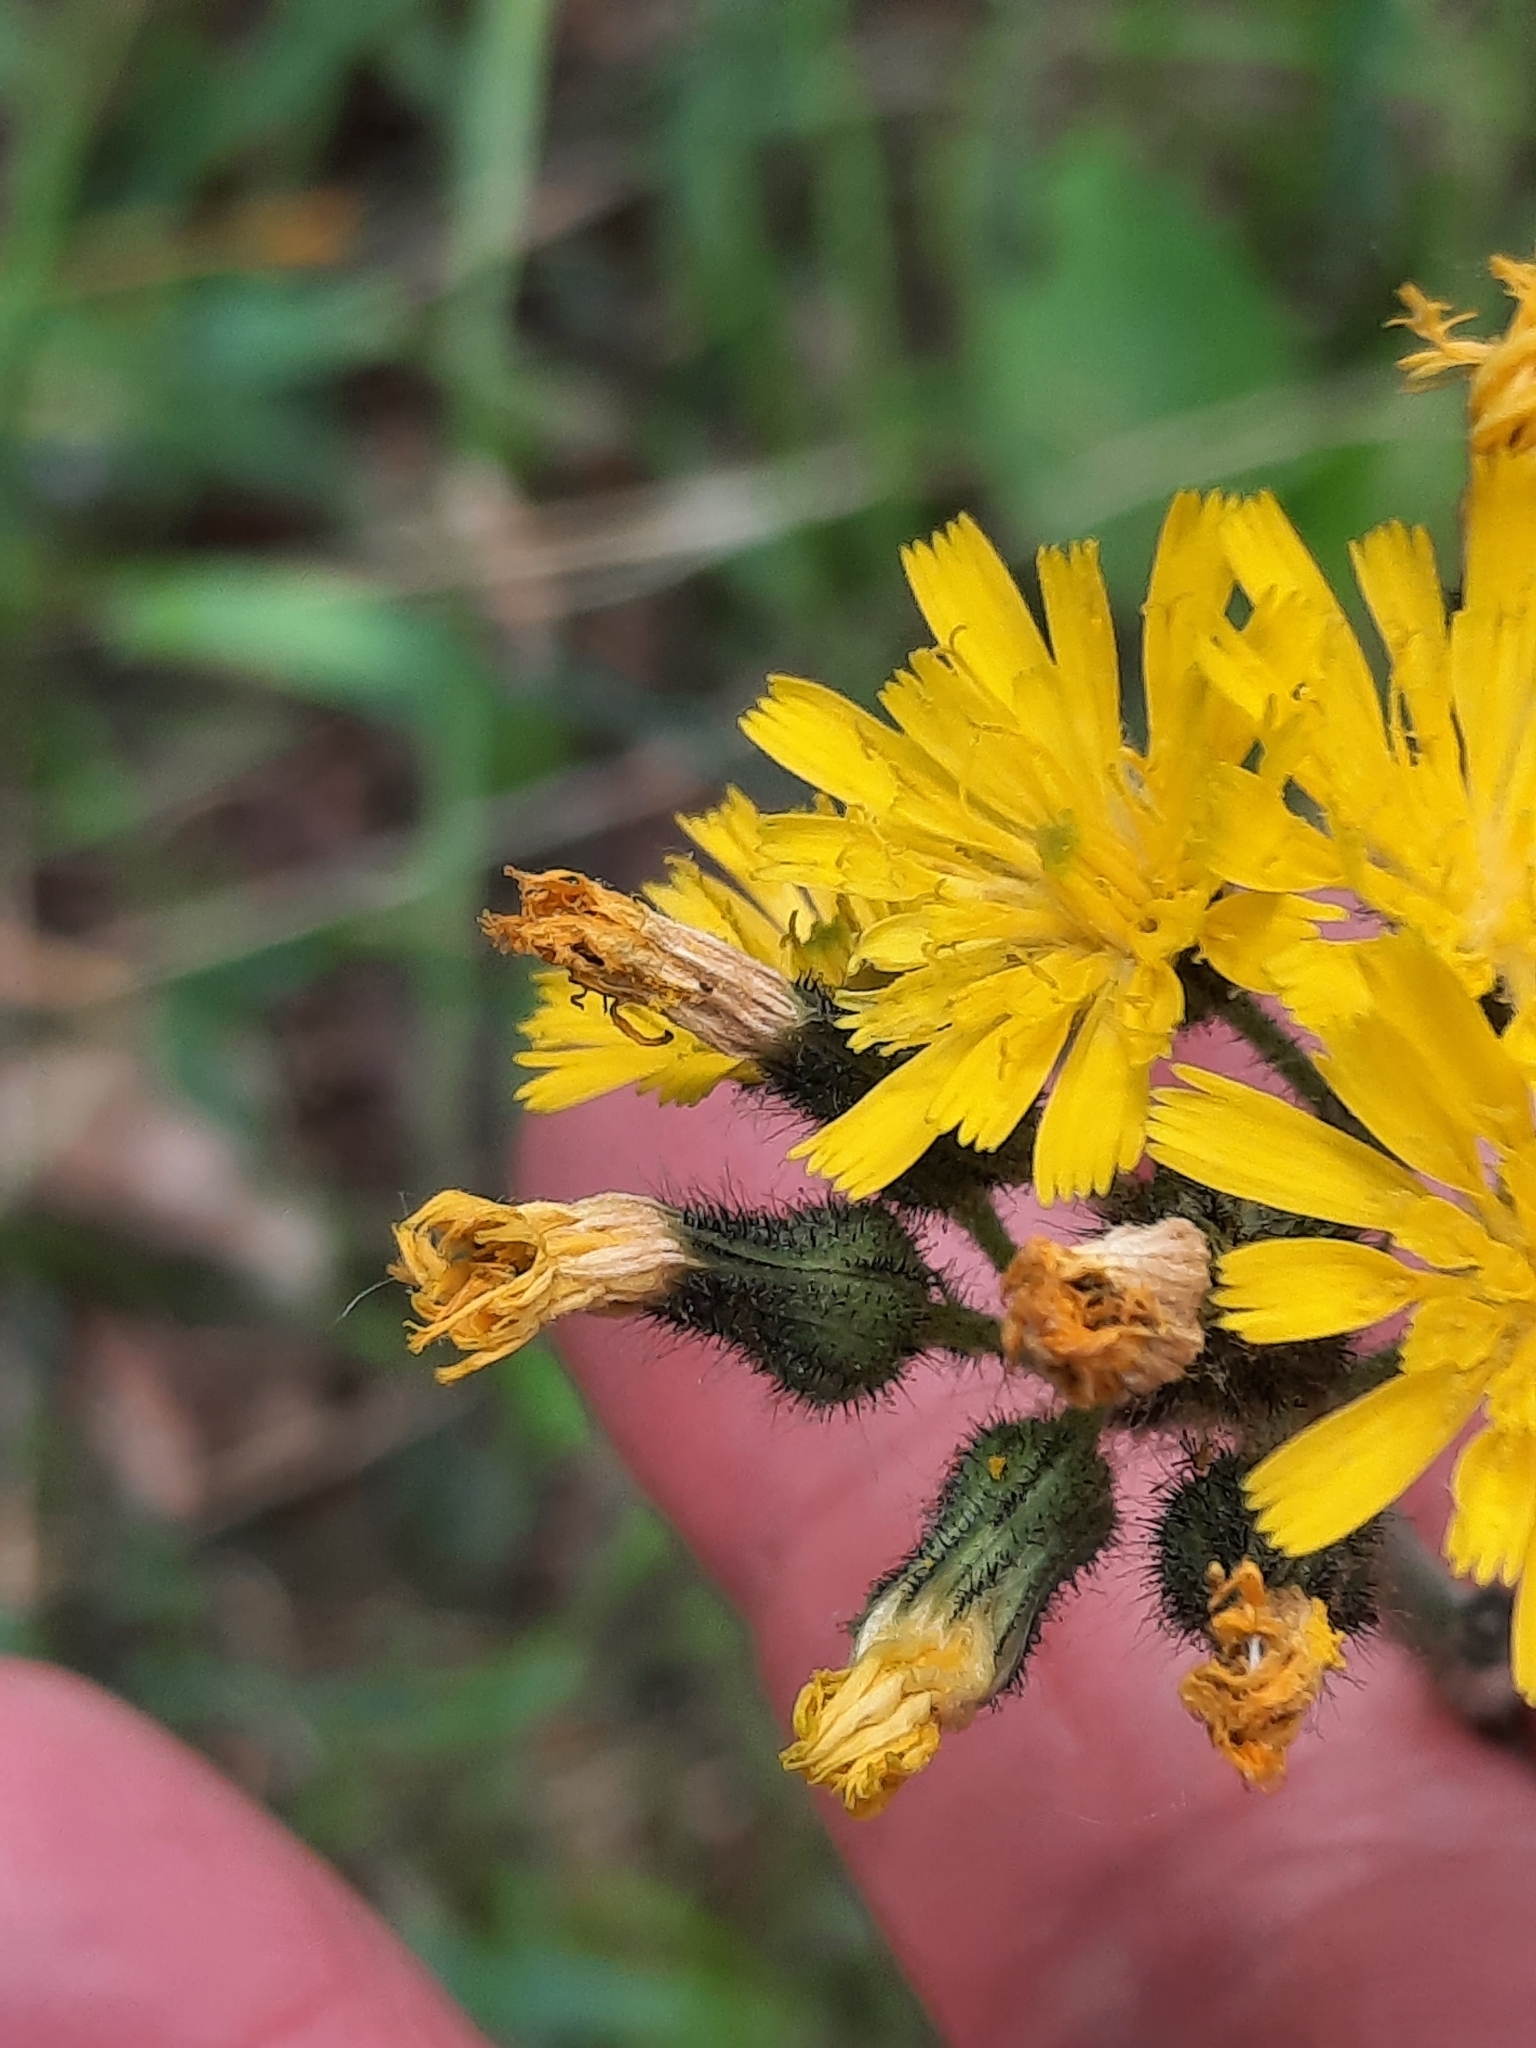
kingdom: Plantae
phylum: Tracheophyta
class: Magnoliopsida
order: Asterales
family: Asteraceae
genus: Pilosella
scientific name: Pilosella caespitosa
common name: Yellow fox-and-cubs
